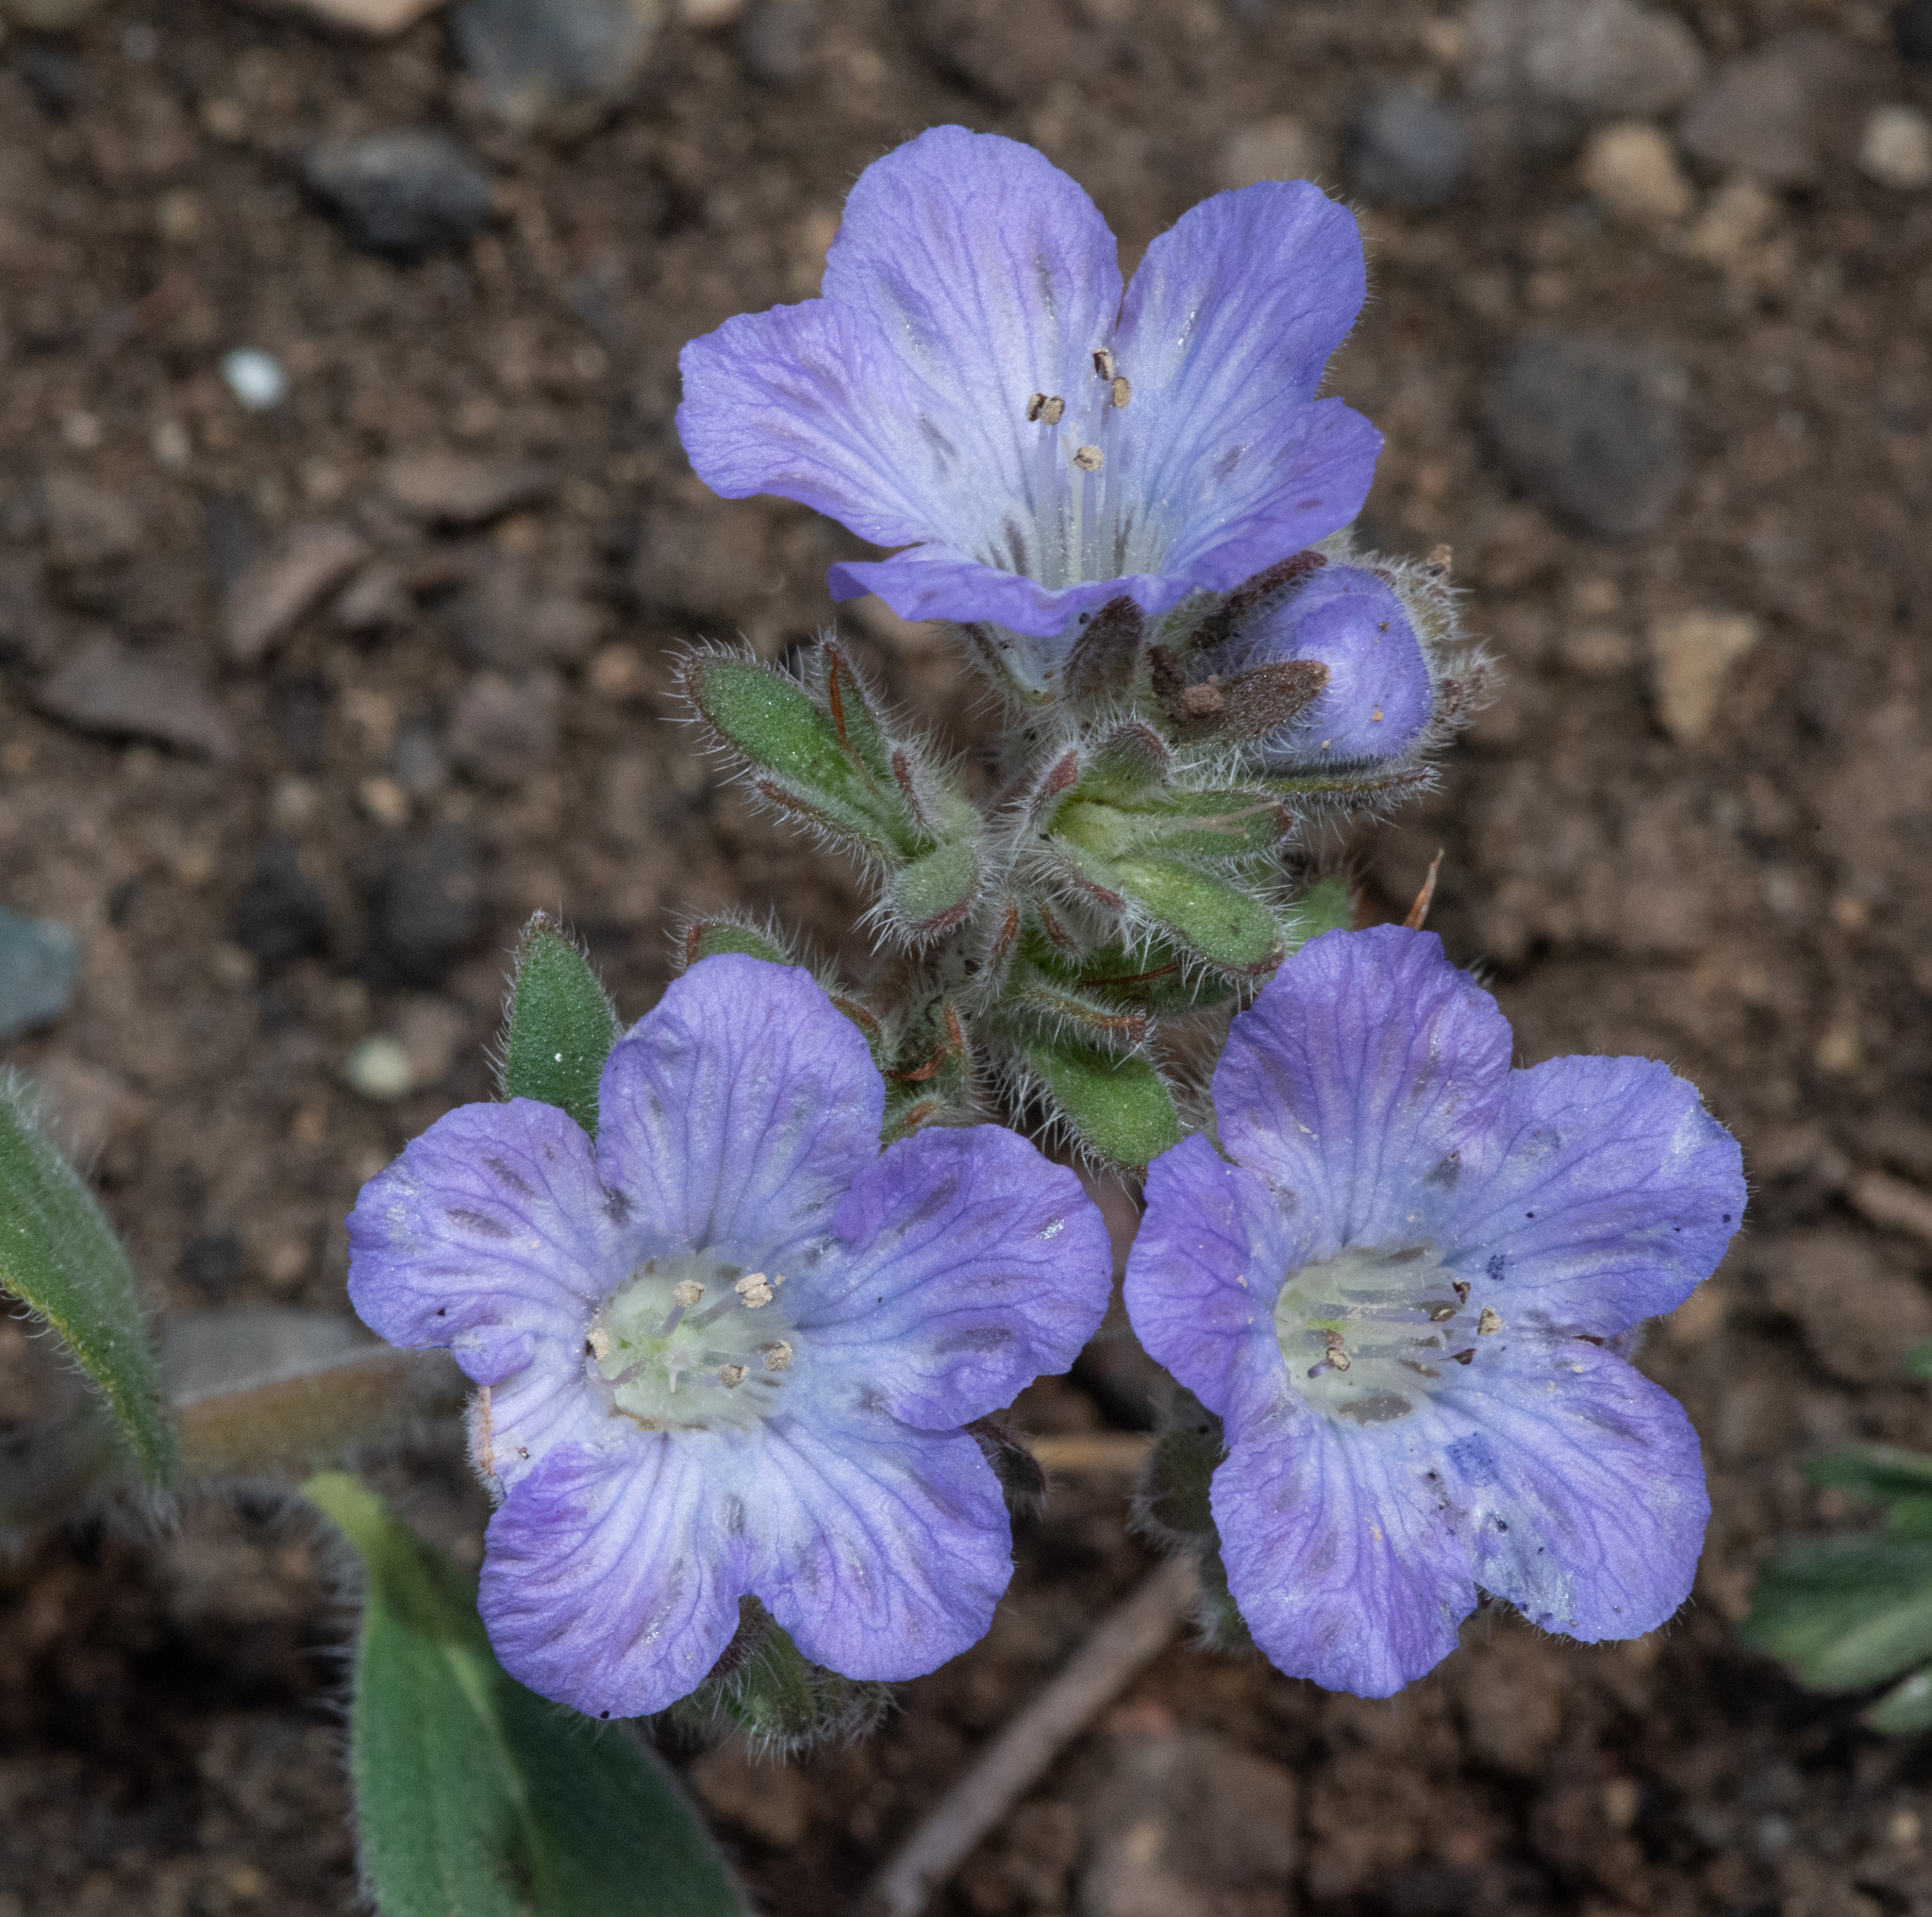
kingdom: Plantae
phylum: Tracheophyta
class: Magnoliopsida
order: Boraginales
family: Hydrophyllaceae
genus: Phacelia
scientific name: Phacelia divaricata
